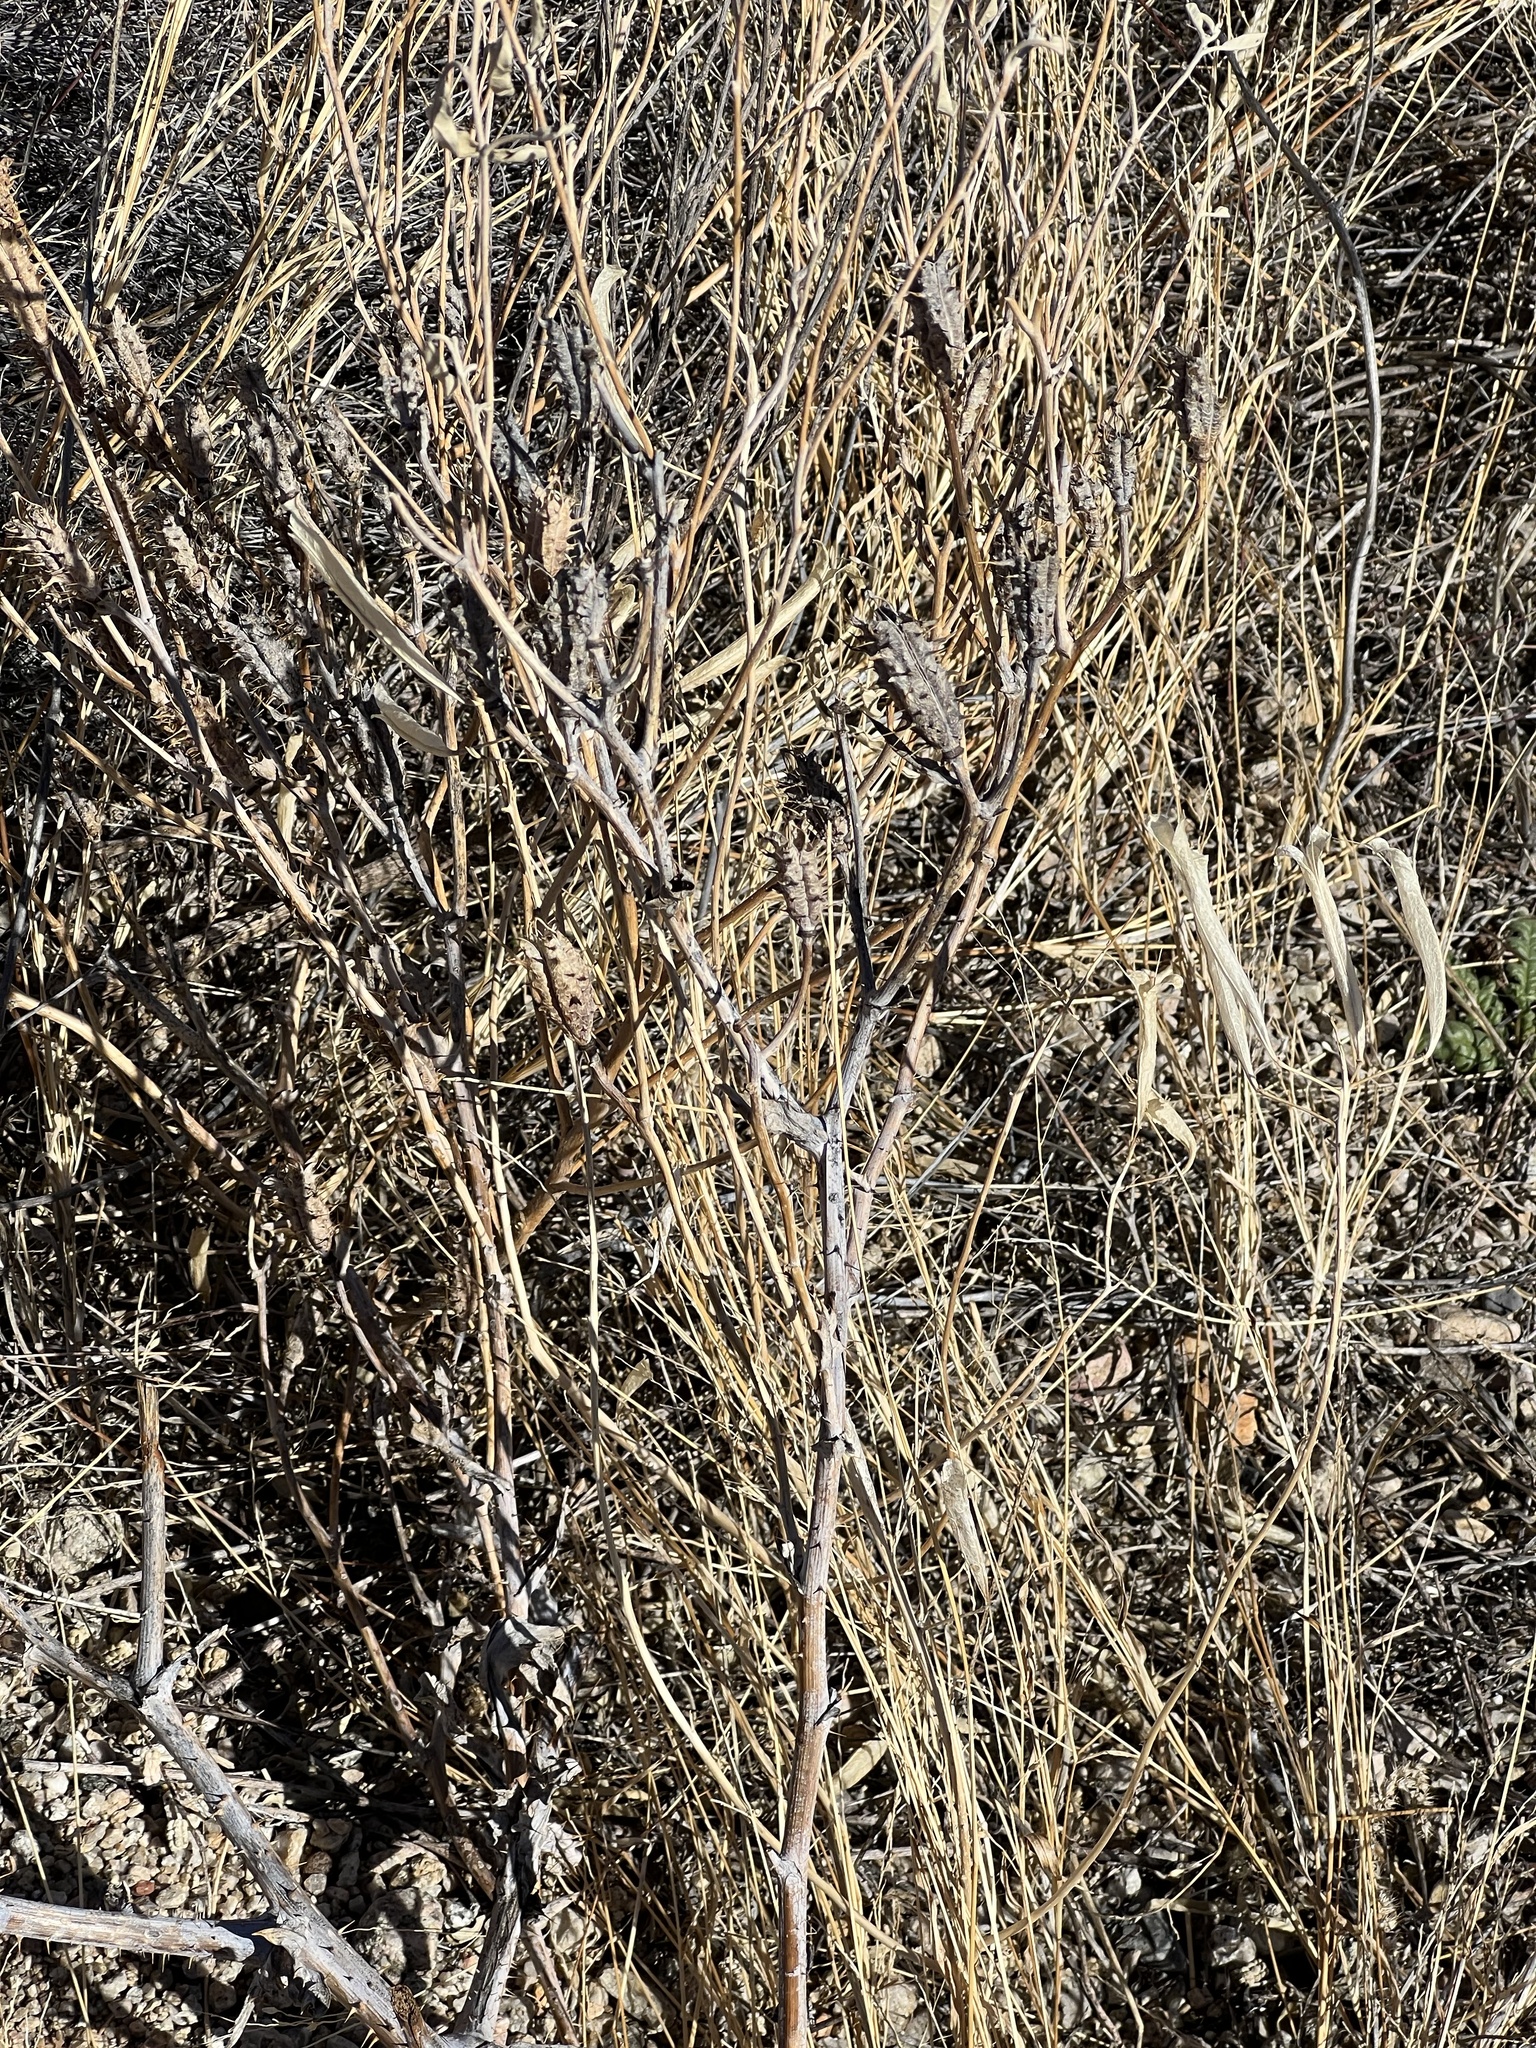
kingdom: Plantae
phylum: Tracheophyta
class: Magnoliopsida
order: Asterales
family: Asteraceae
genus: Xanthium
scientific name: Xanthium strumarium
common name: Rough cocklebur
